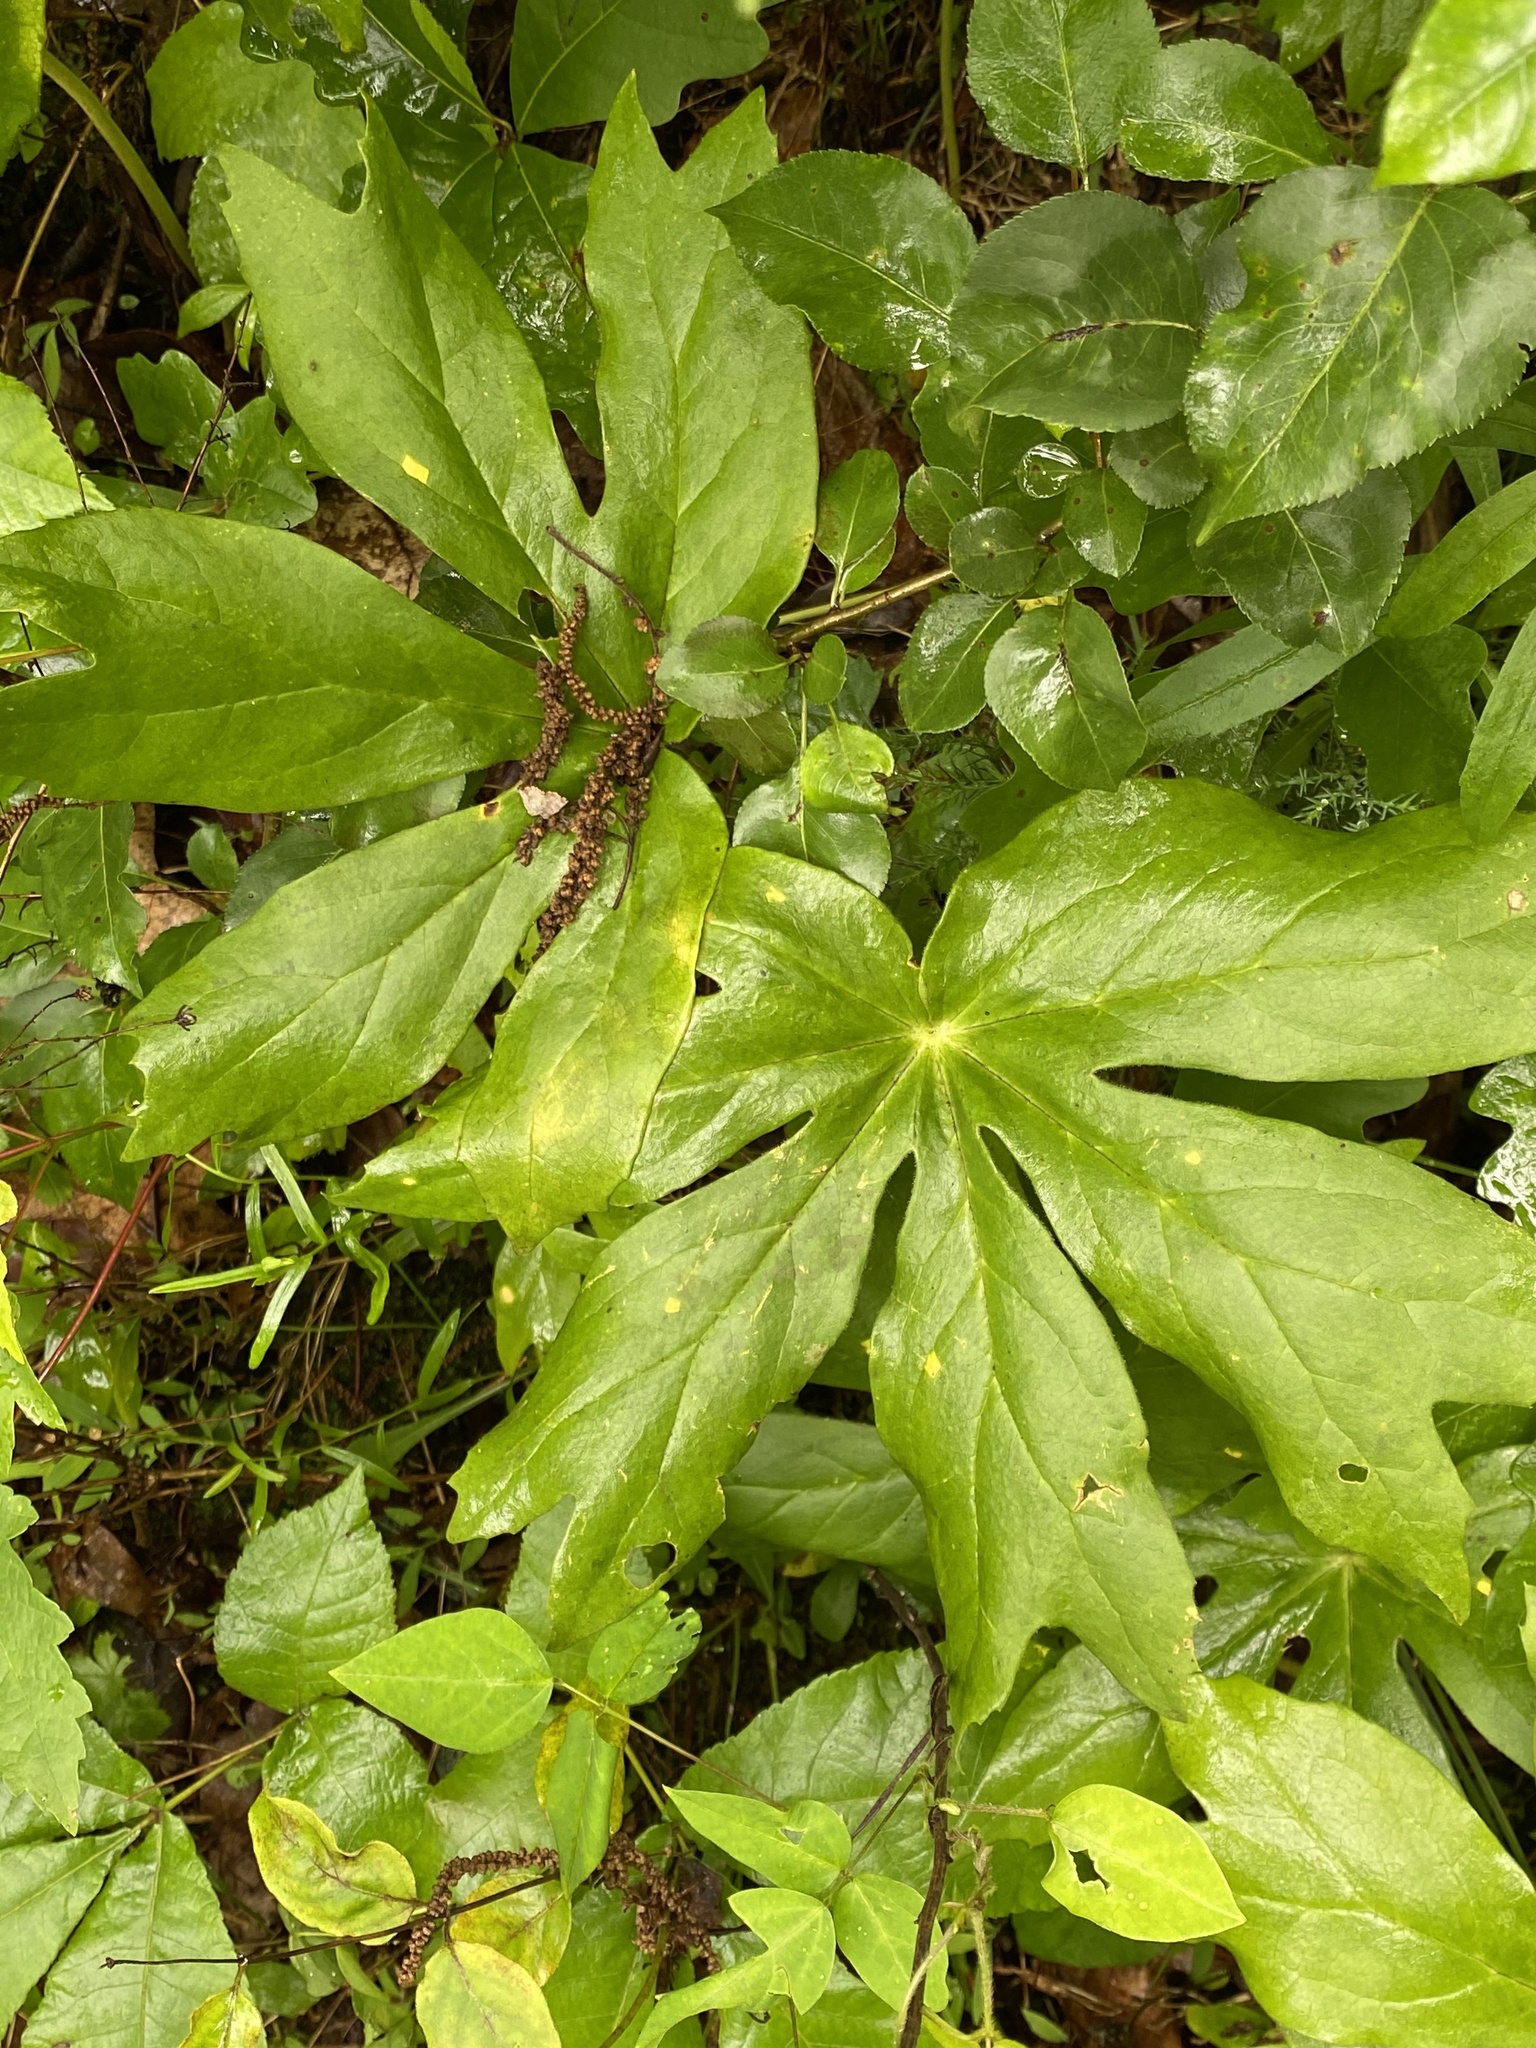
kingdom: Plantae
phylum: Tracheophyta
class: Magnoliopsida
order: Ranunculales
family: Berberidaceae
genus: Podophyllum
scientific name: Podophyllum peltatum
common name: Wild mandrake
